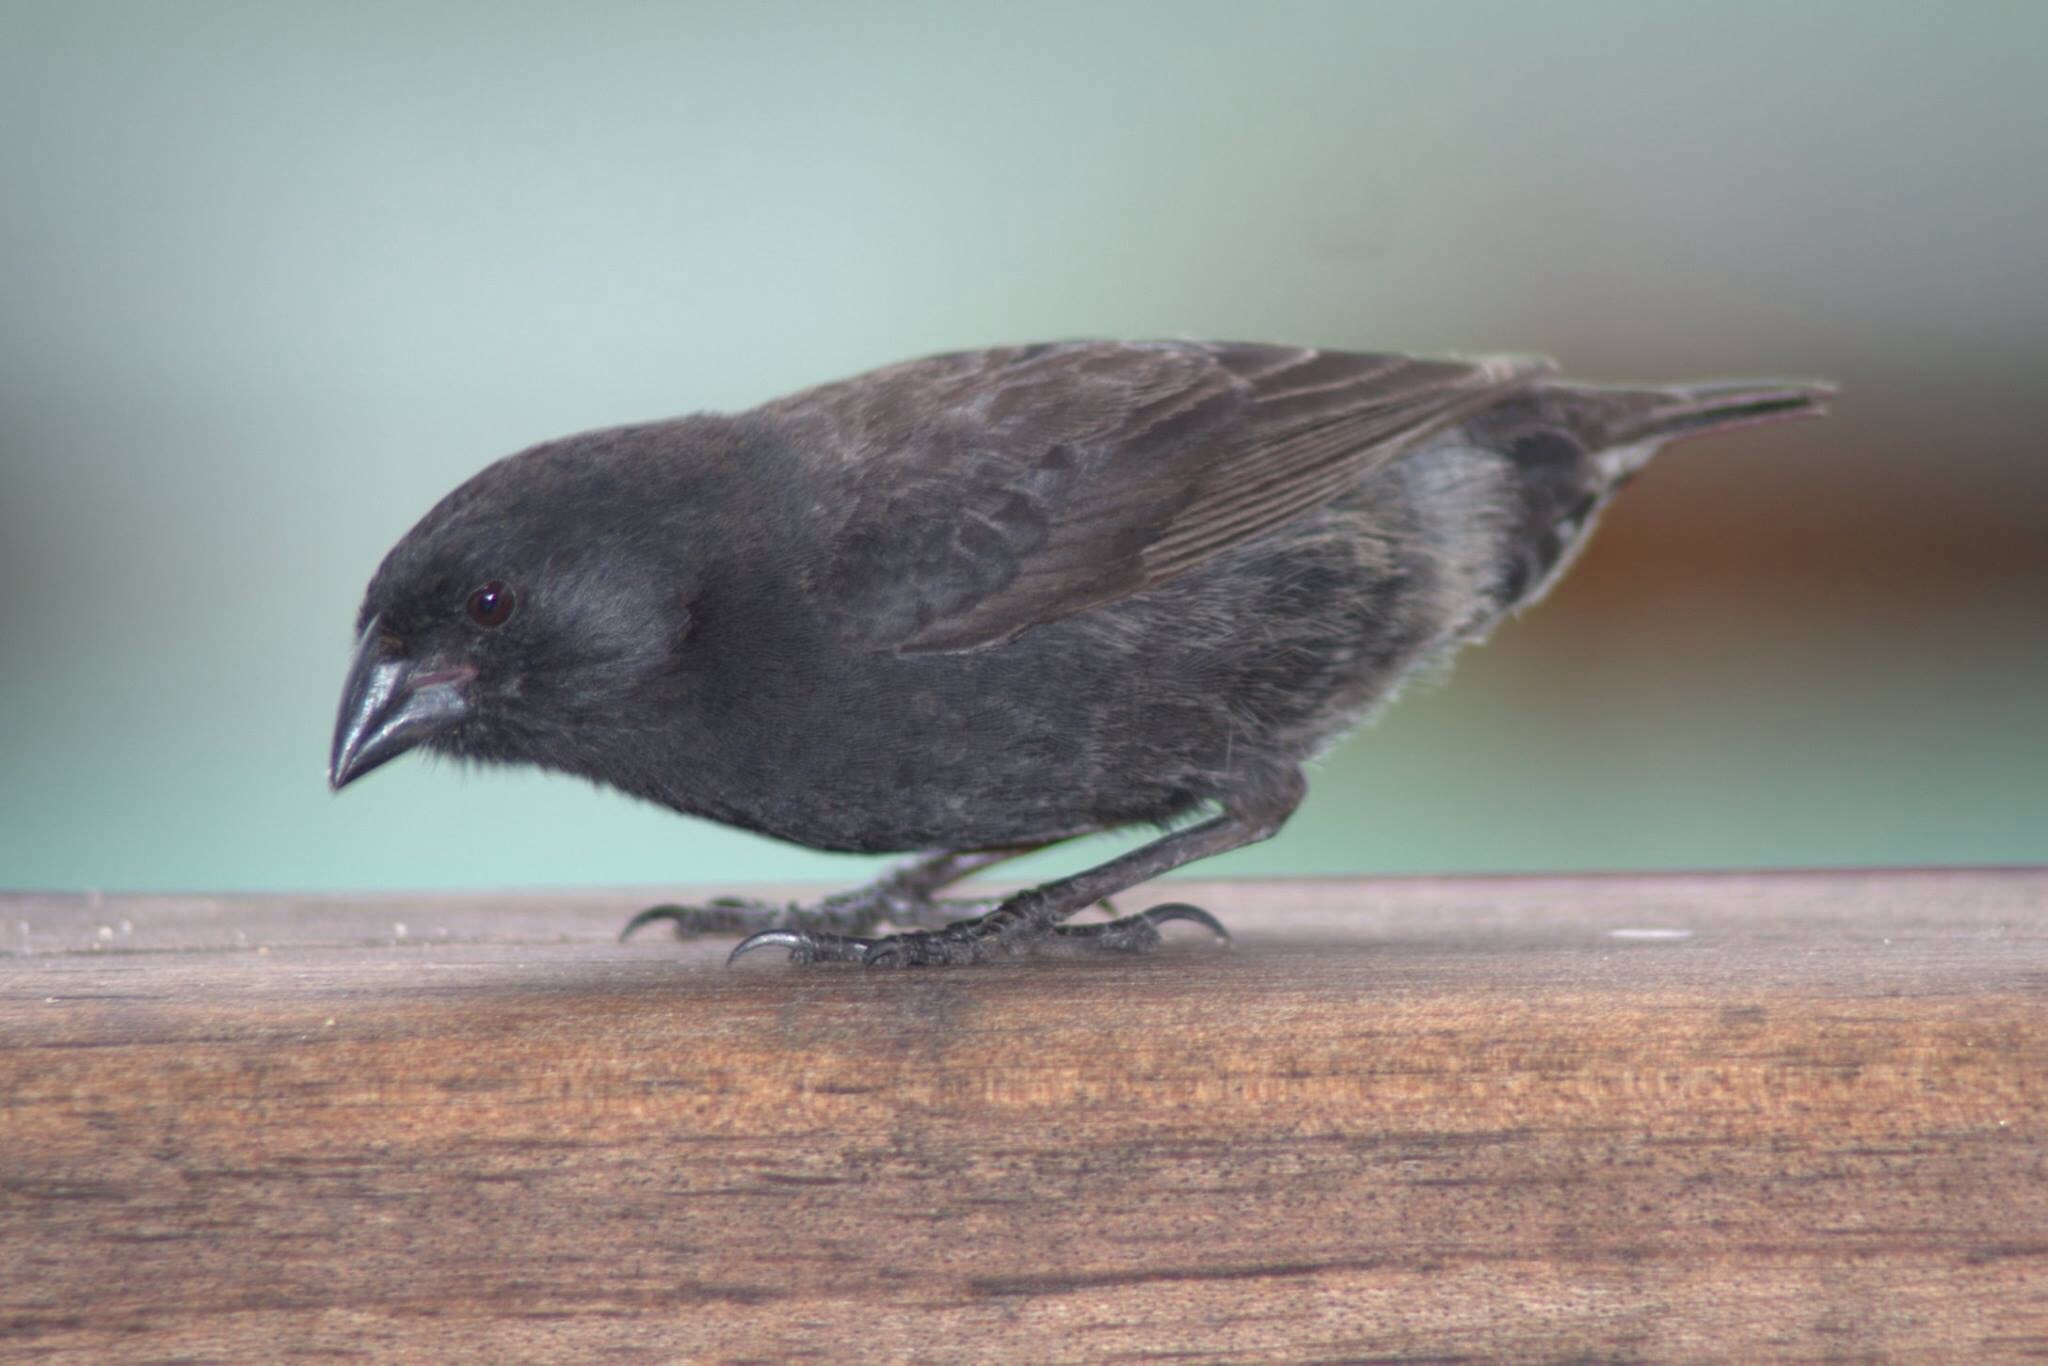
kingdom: Animalia
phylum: Chordata
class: Aves
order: Passeriformes
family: Thraupidae
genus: Geospiza
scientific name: Geospiza fortis
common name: Medium ground finch
